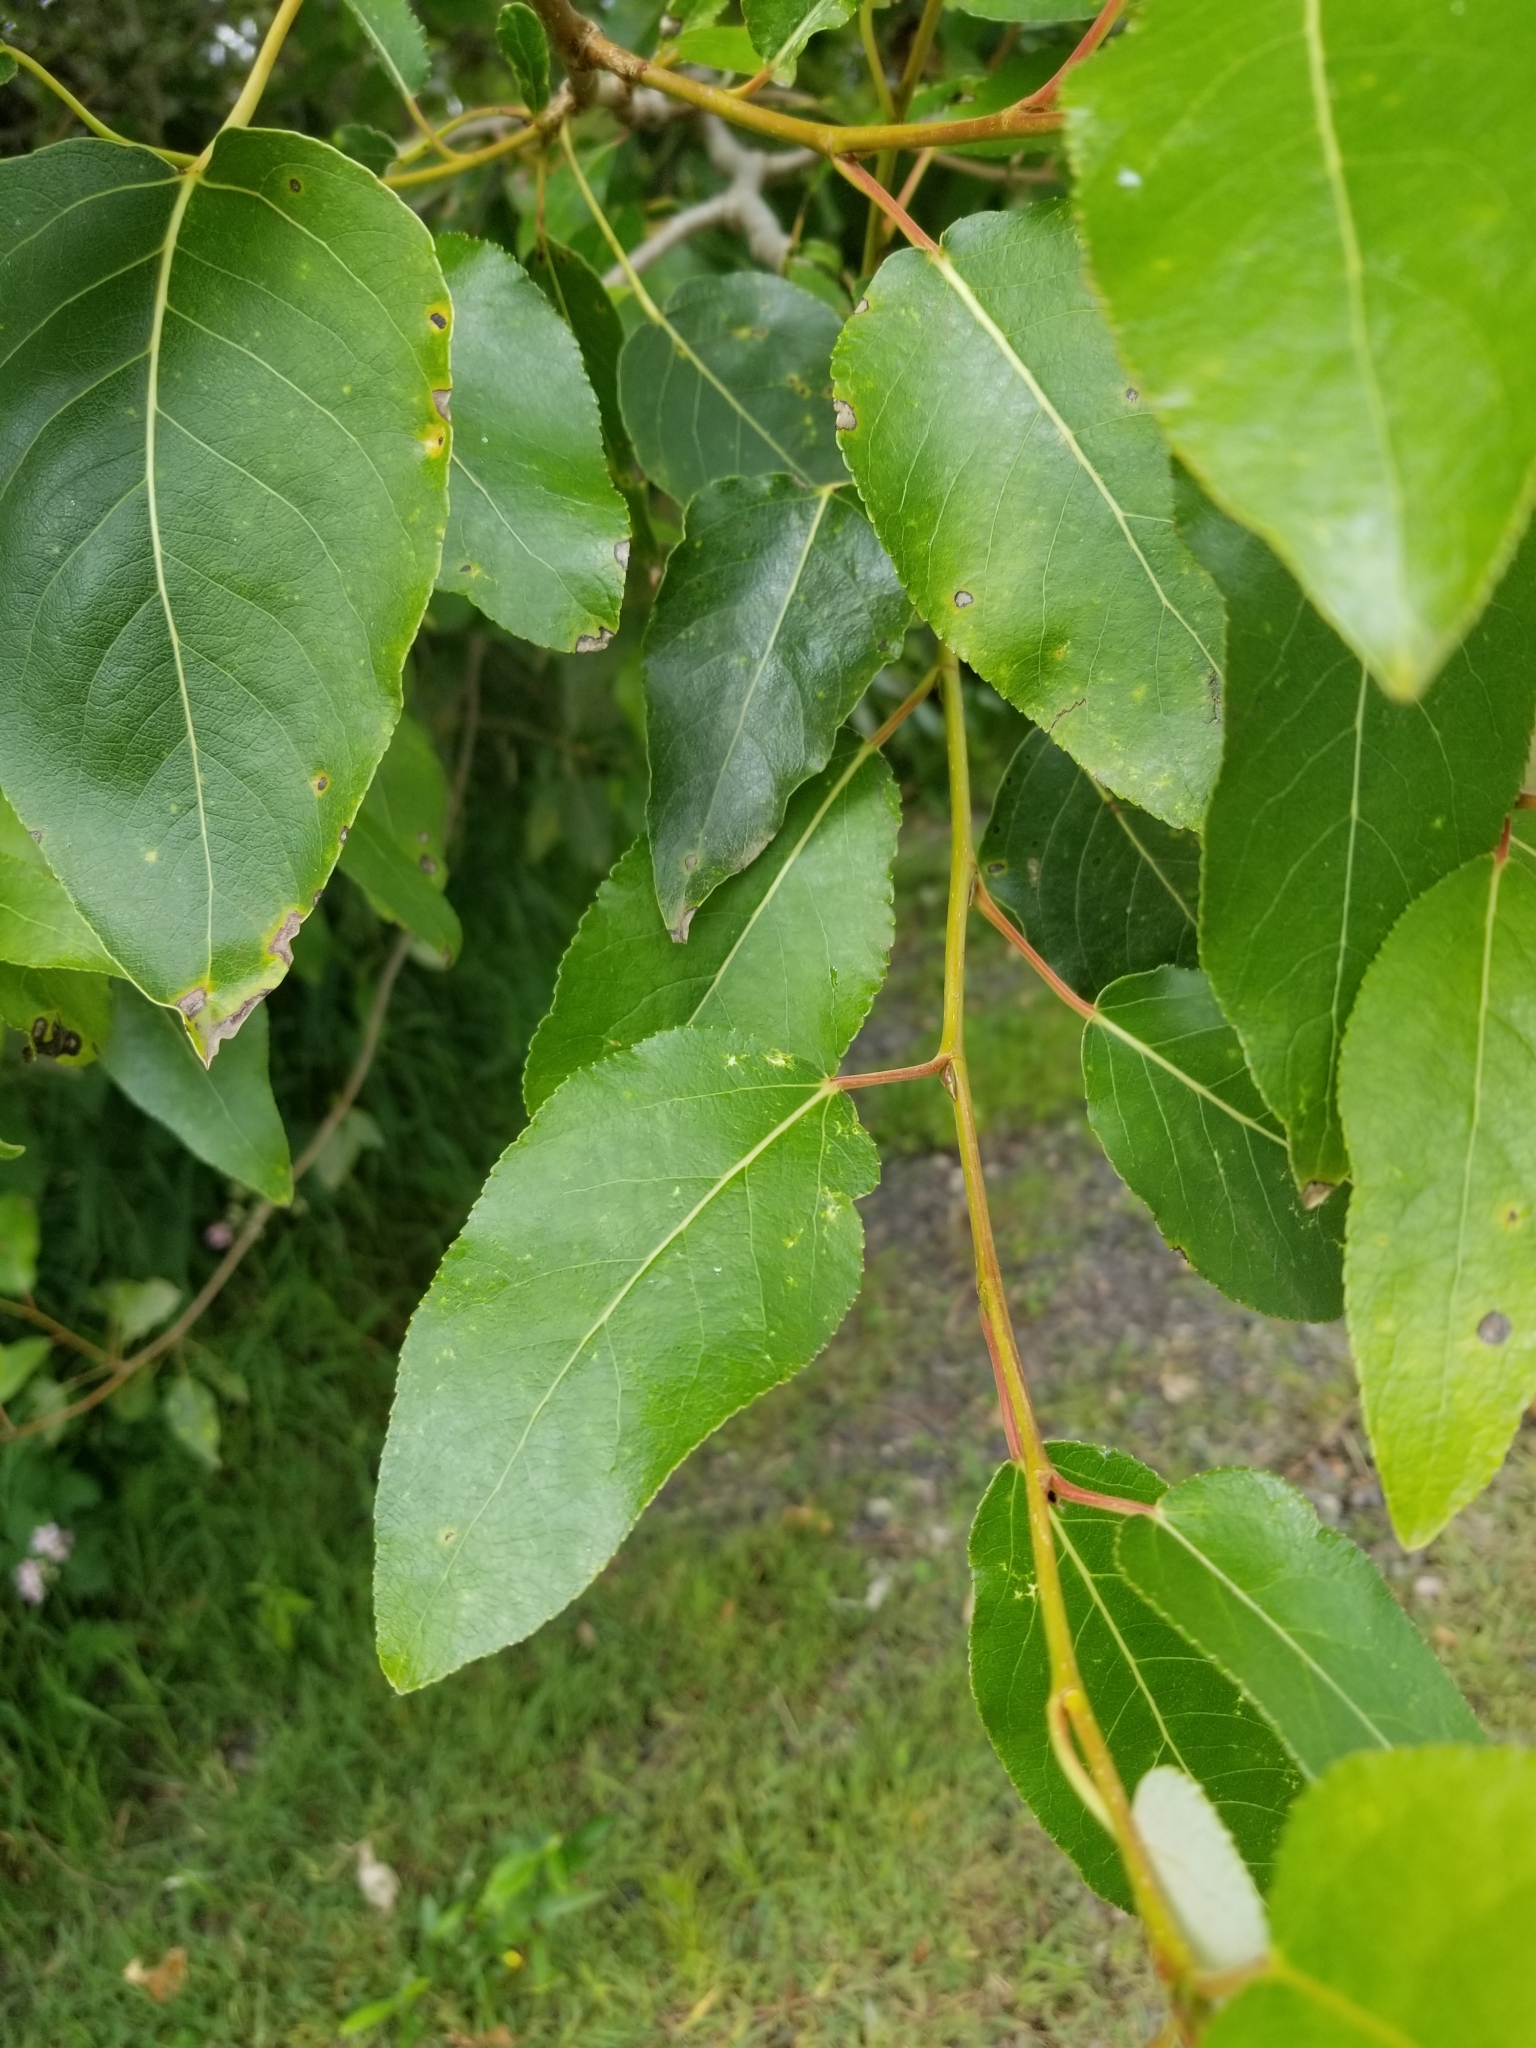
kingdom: Plantae
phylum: Tracheophyta
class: Magnoliopsida
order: Malpighiales
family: Salicaceae
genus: Populus
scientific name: Populus trichocarpa
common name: Black cottonwood
